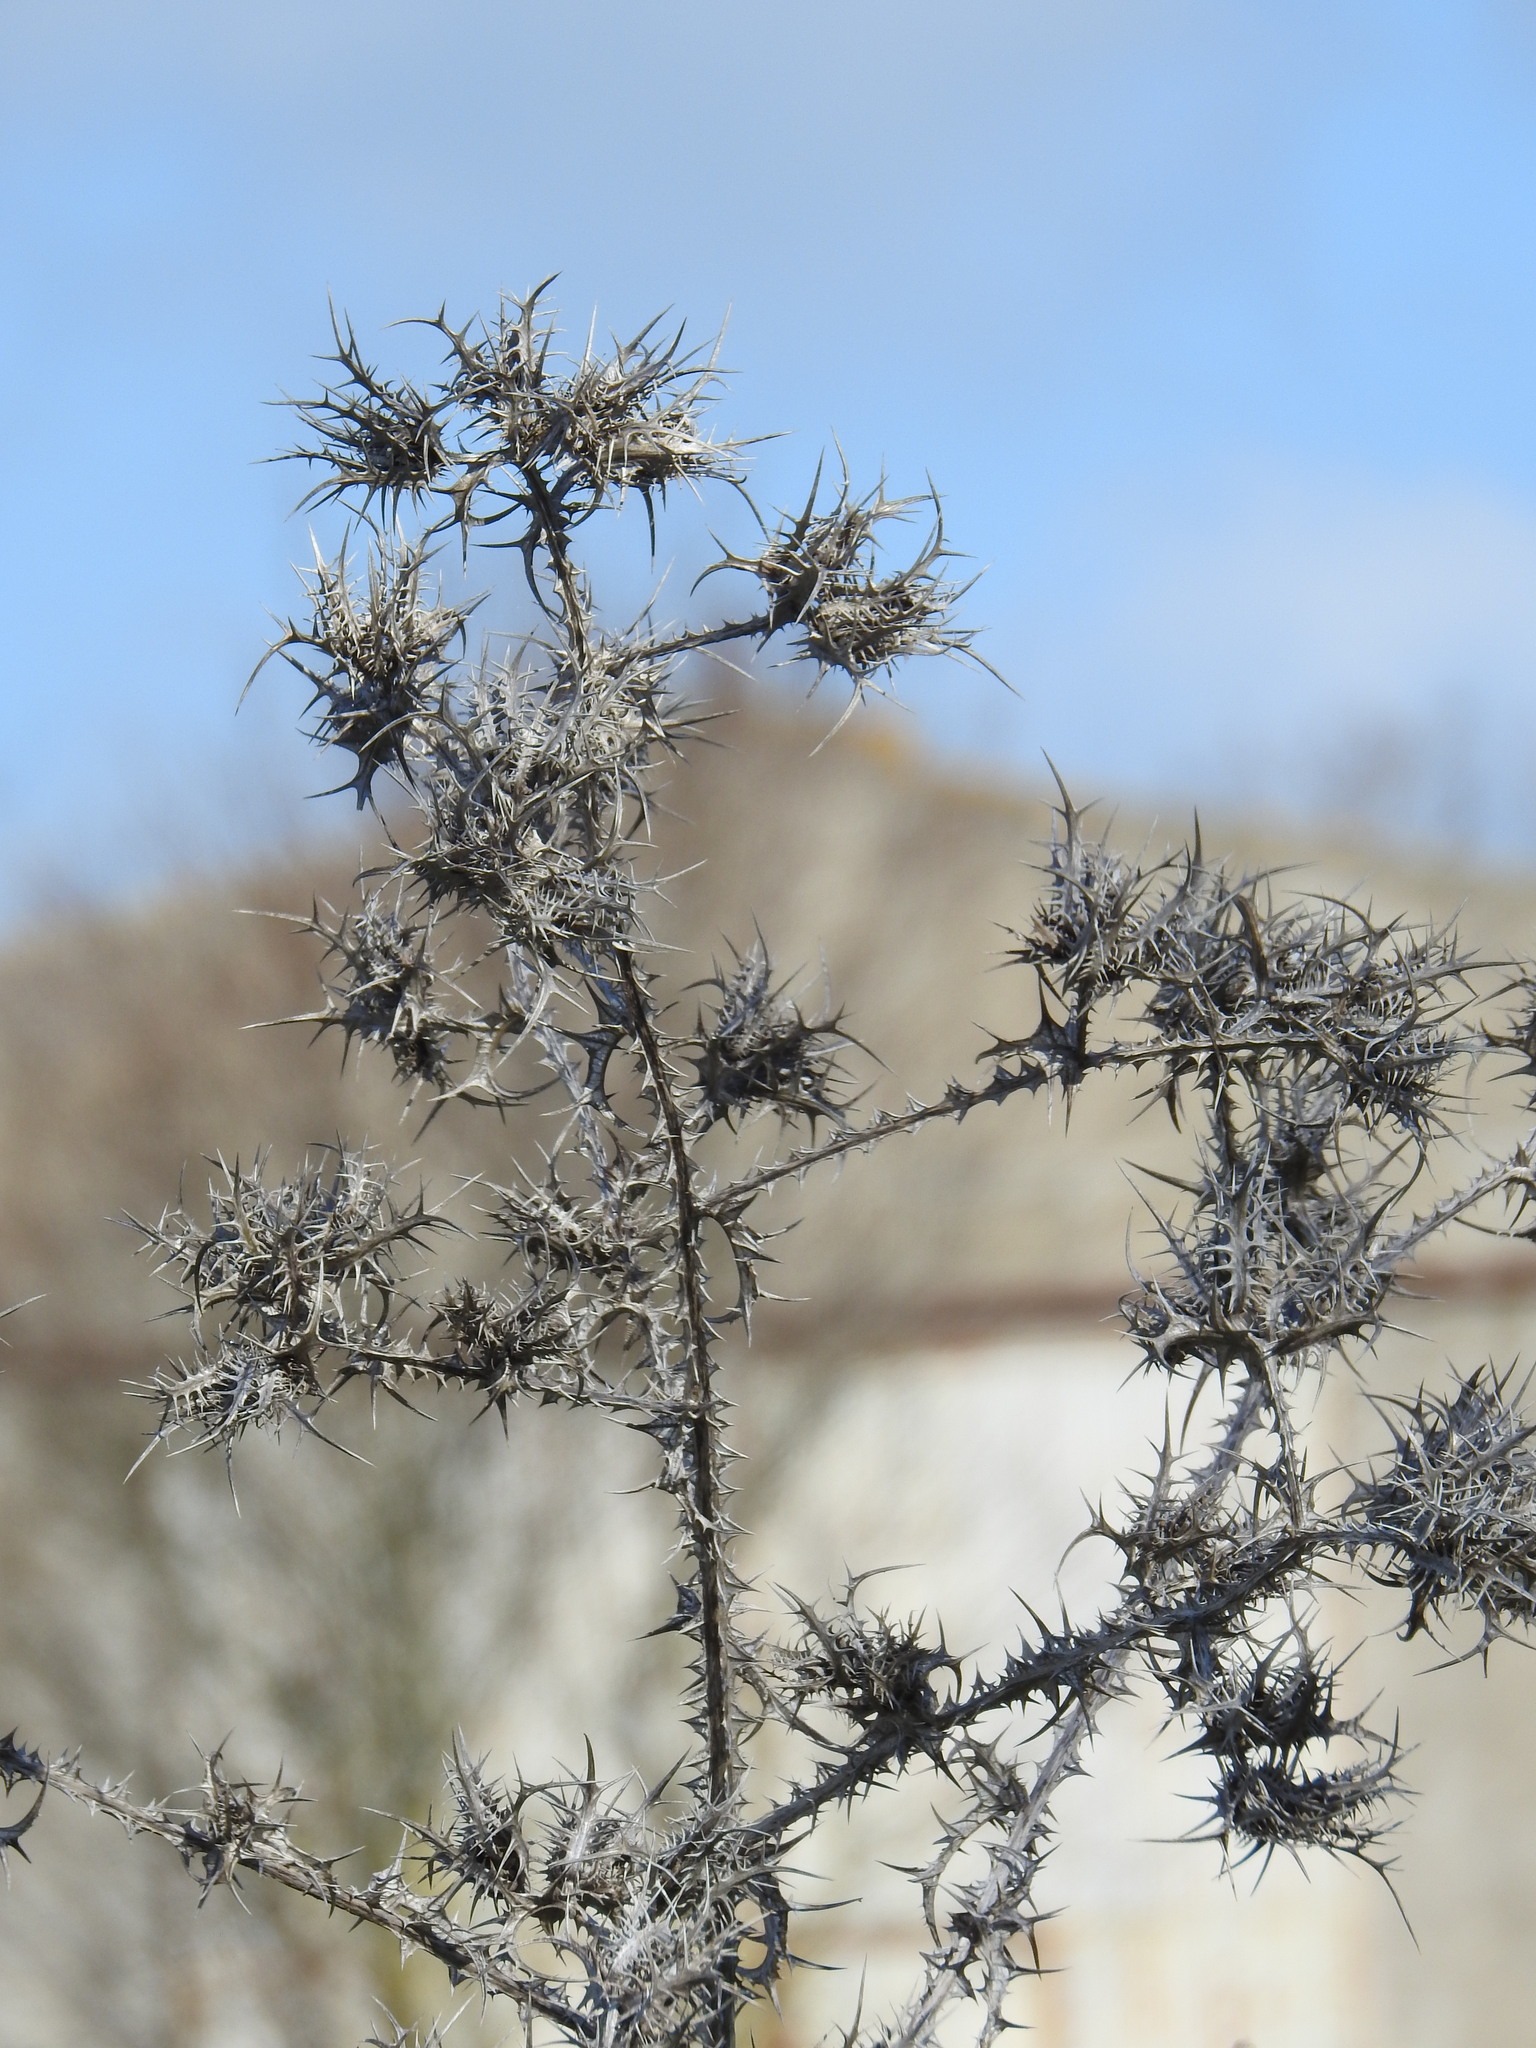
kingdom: Plantae
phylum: Tracheophyta
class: Magnoliopsida
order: Asterales
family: Asteraceae
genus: Scolymus
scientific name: Scolymus maculatus
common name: Spotted thistle
